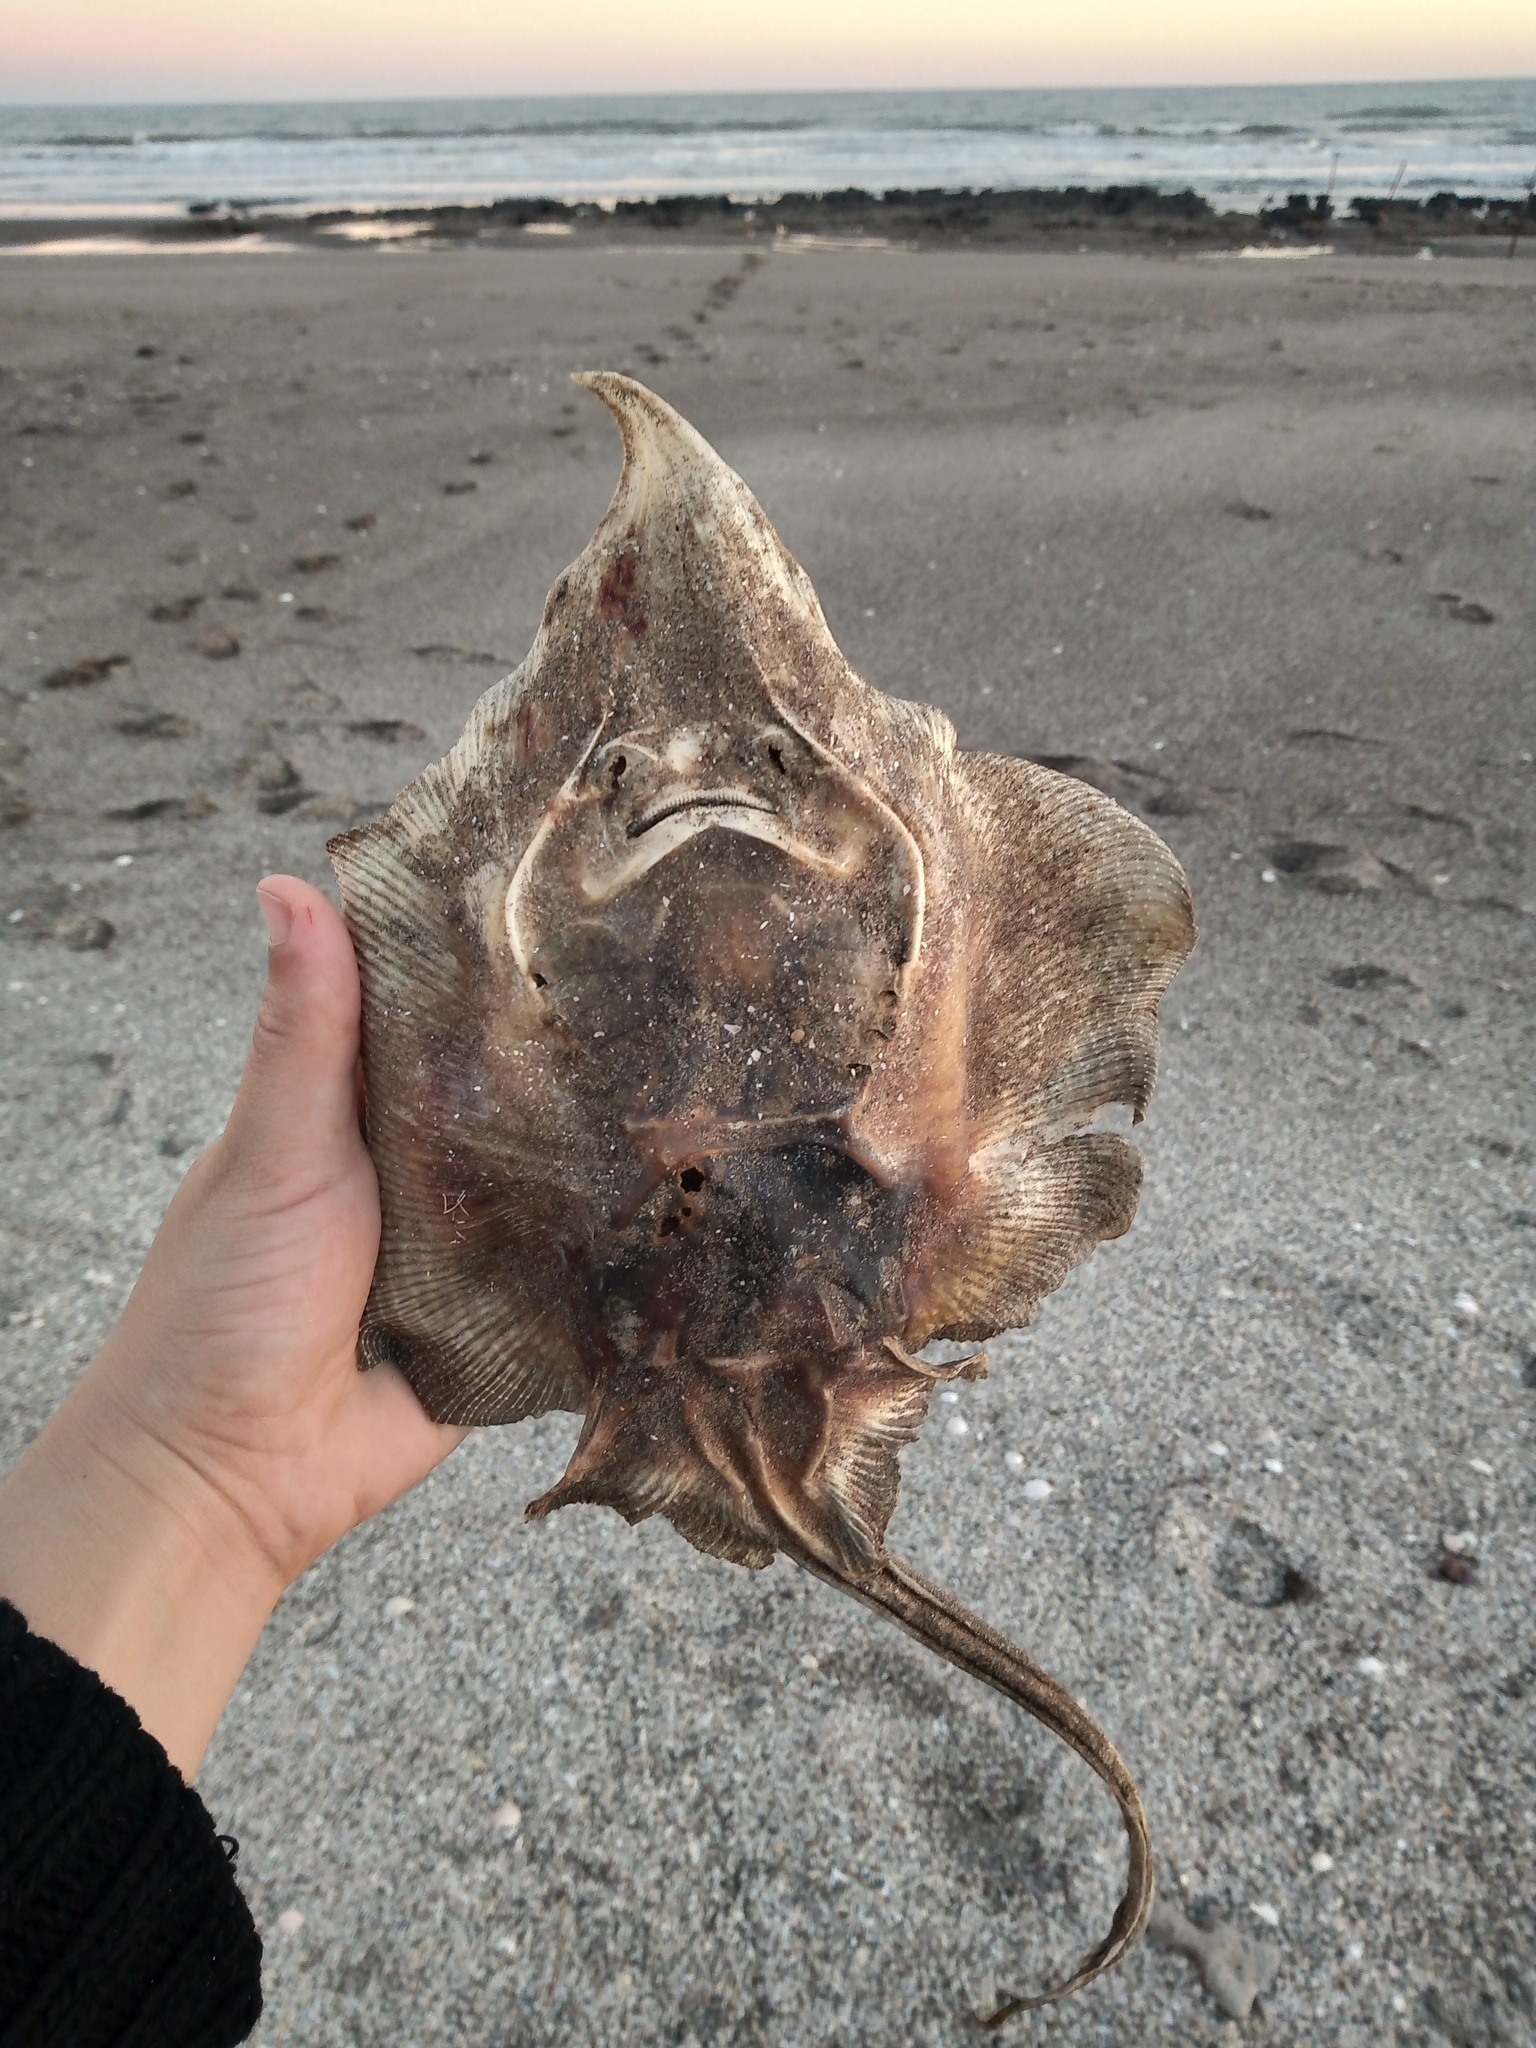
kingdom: Animalia
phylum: Chordata
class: Elasmobranchii
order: Rajiformes
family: Arhynchobatidae
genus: Sympterygia
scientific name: Sympterygia acuta
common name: Bignose fanskate
